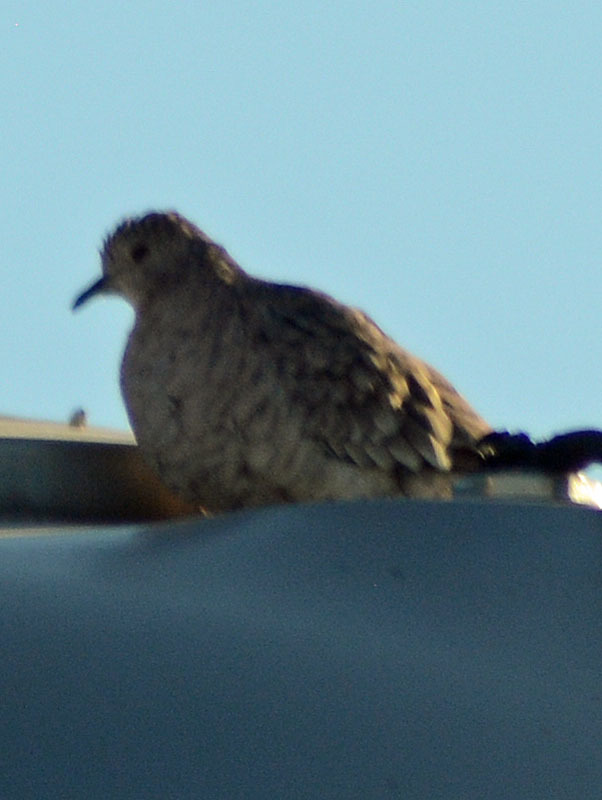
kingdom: Animalia
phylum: Chordata
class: Aves
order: Columbiformes
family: Columbidae
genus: Columbina
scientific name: Columbina inca
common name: Inca dove
